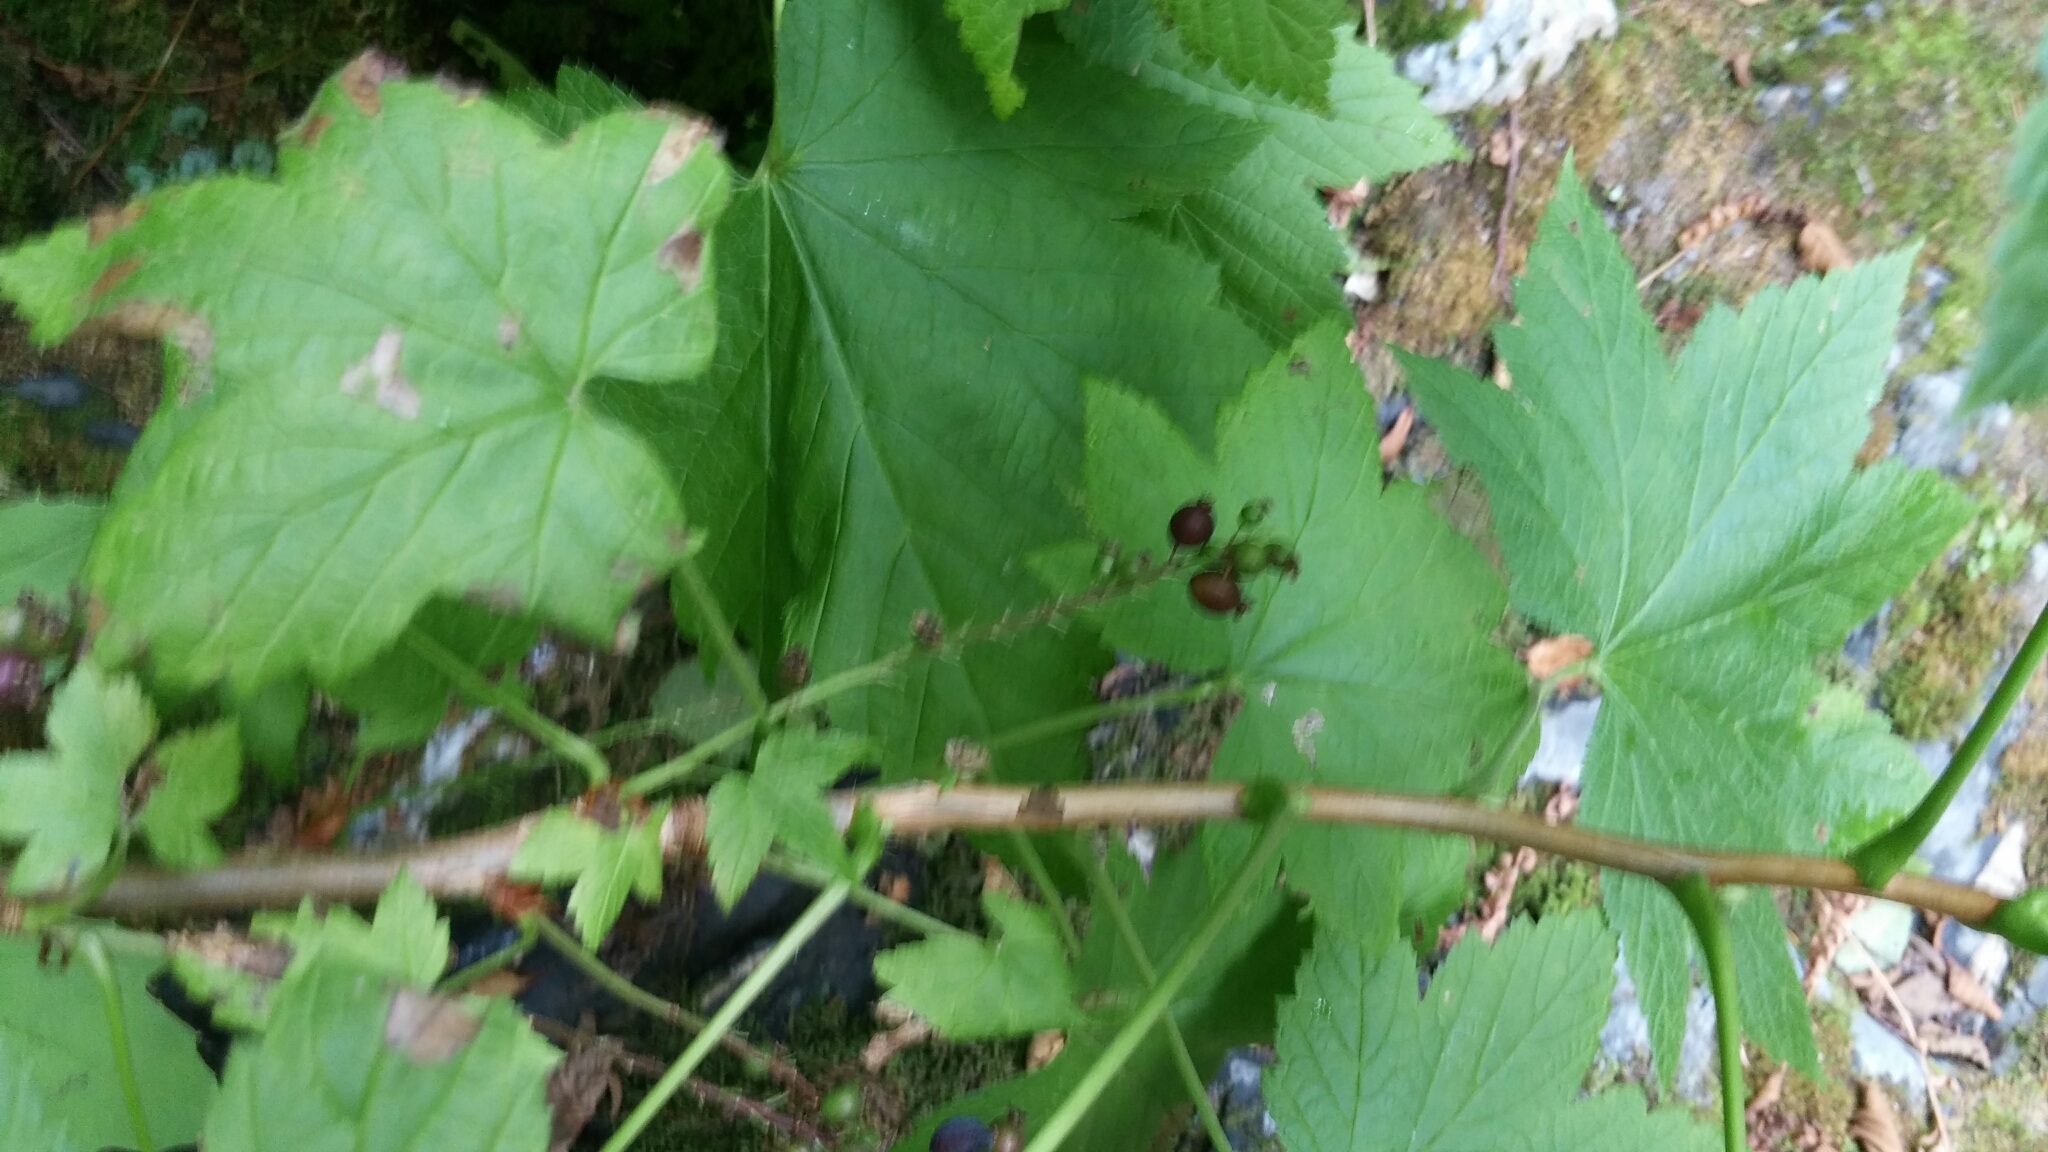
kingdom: Plantae
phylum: Tracheophyta
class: Magnoliopsida
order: Saxifragales
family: Grossulariaceae
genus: Ribes
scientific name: Ribes bracteosum
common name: California black currant
